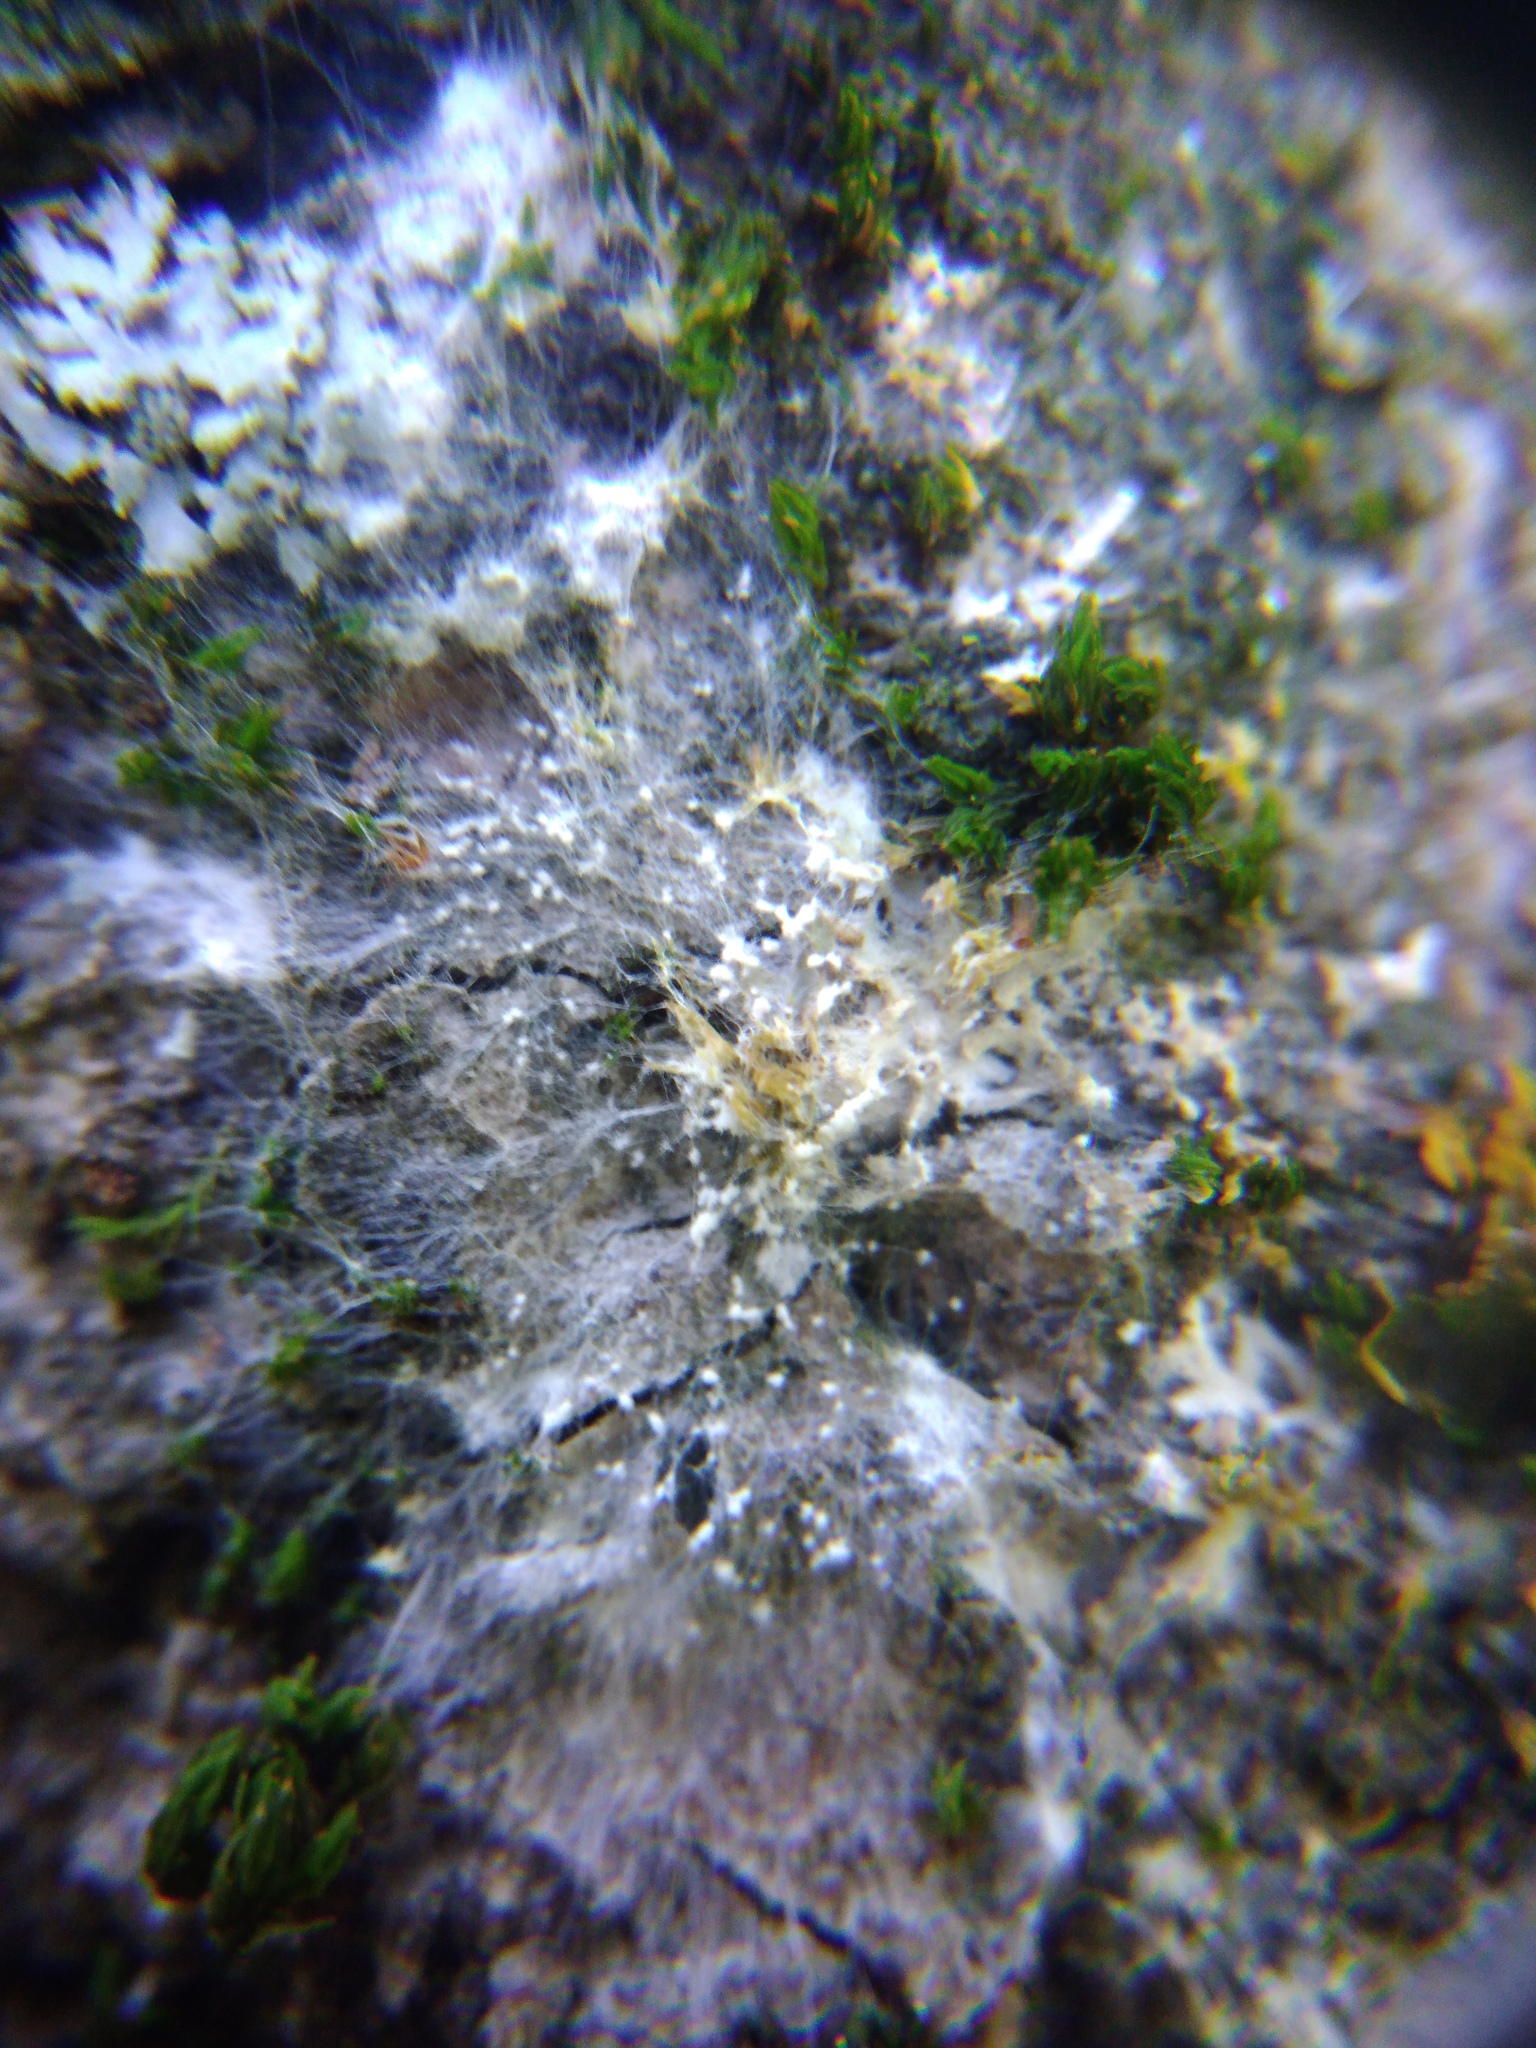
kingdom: Fungi
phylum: Basidiomycota
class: Agaricomycetes
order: Atheliales
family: Atheliaceae
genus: Athelia
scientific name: Athelia arachnoidea
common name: Candelabra duster
